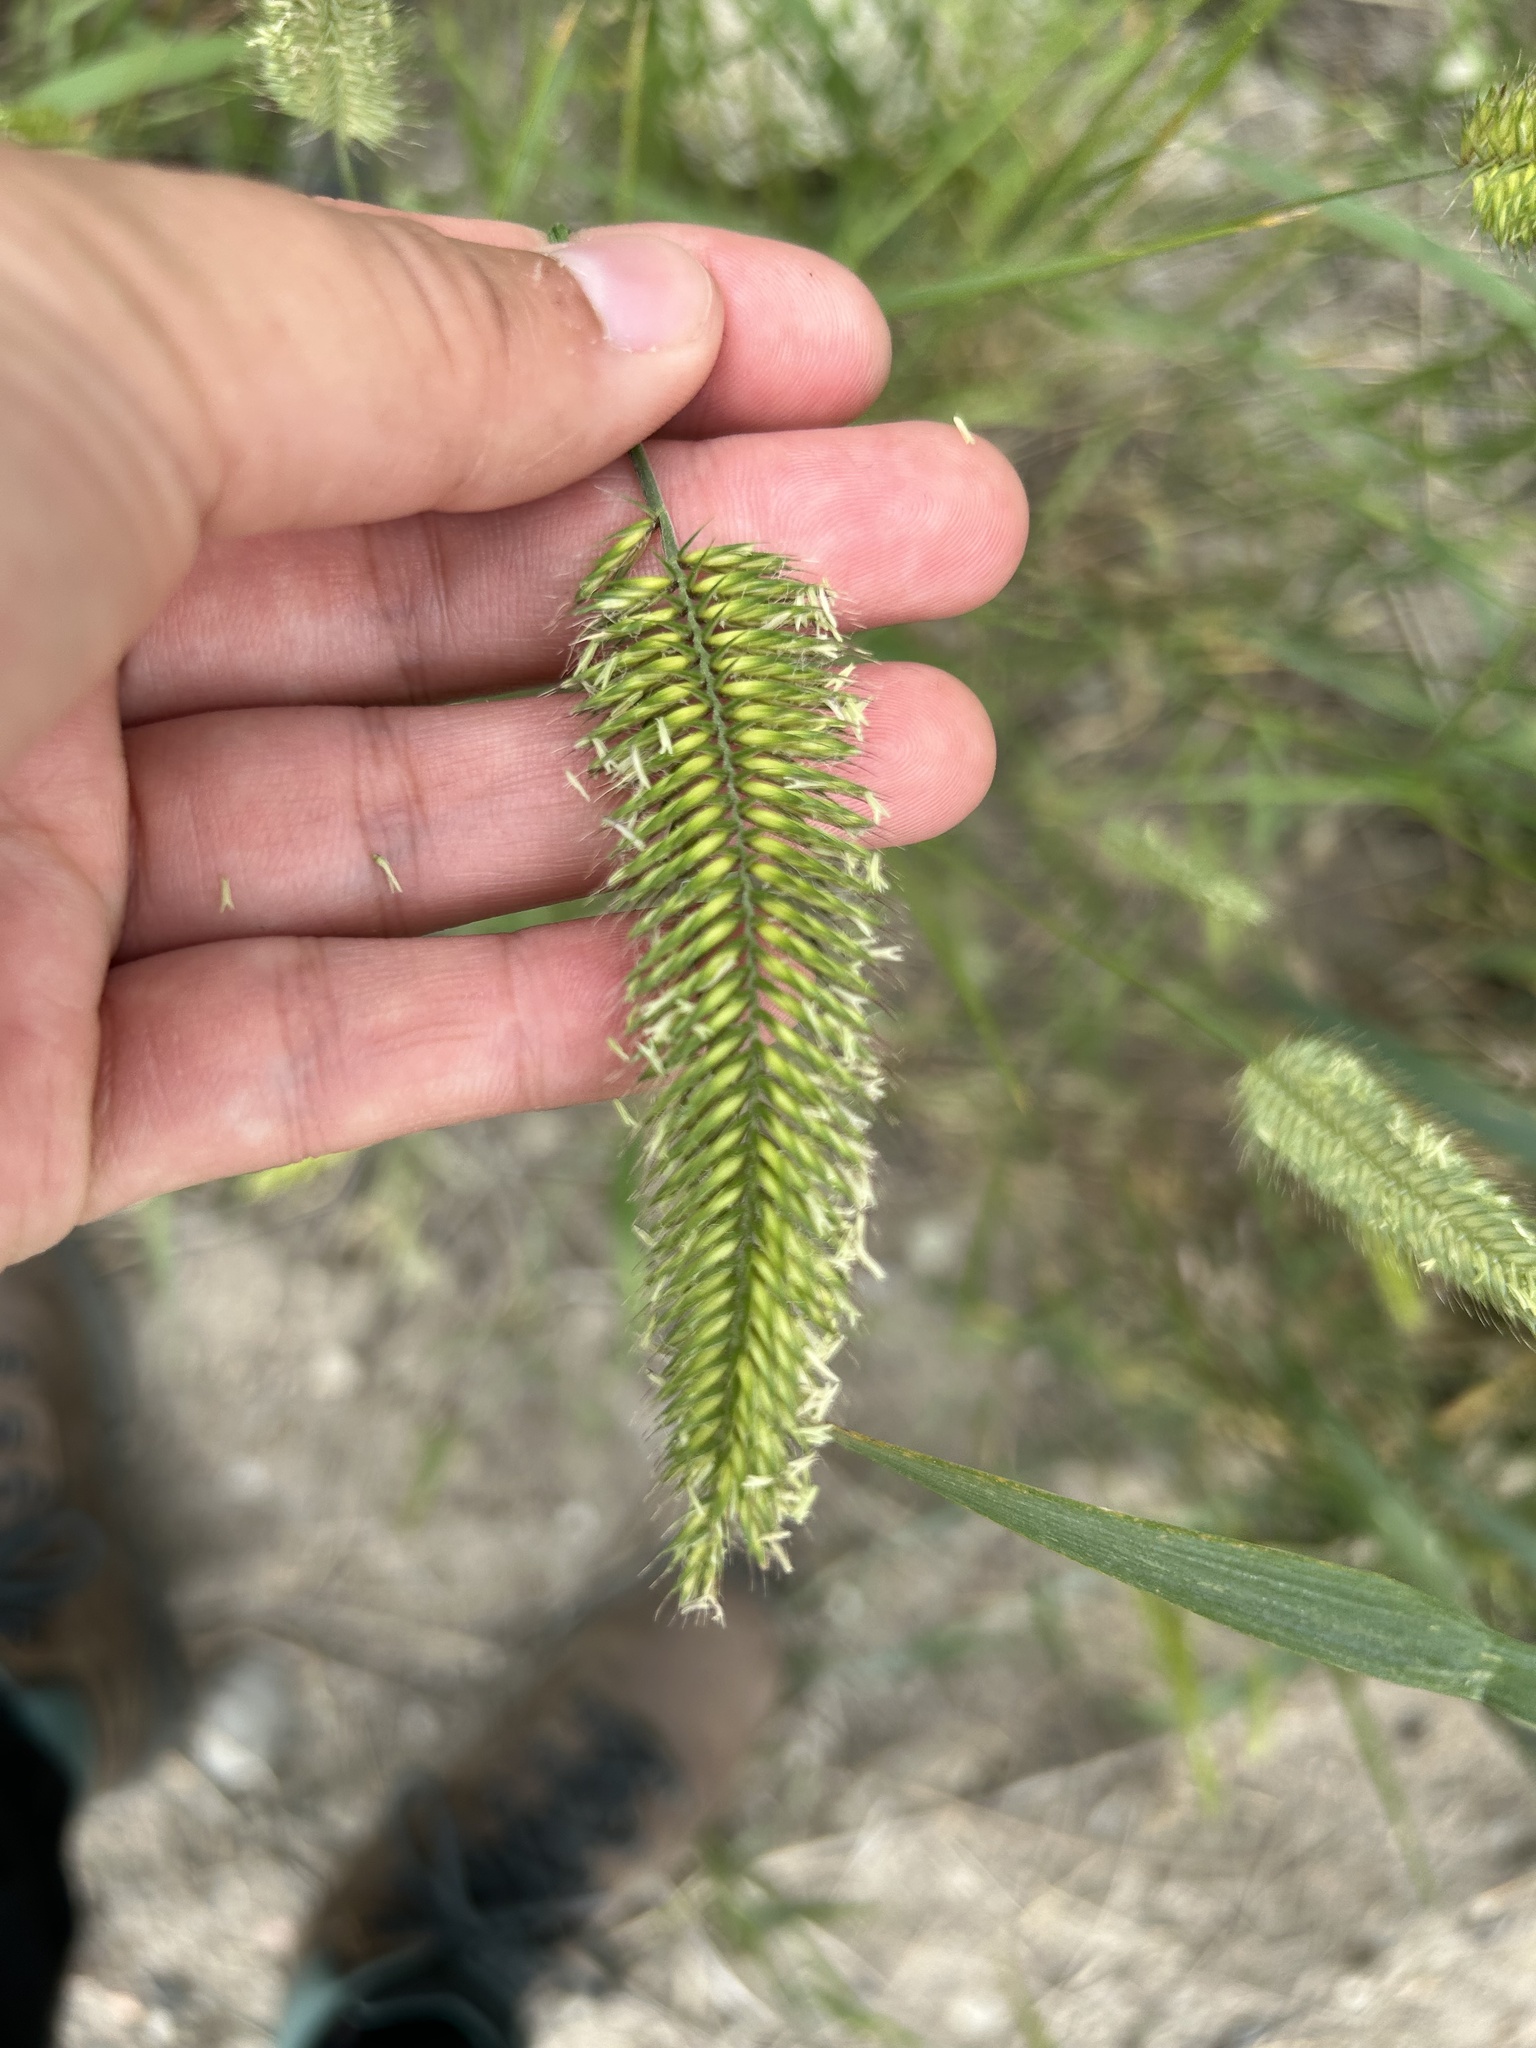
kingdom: Plantae
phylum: Tracheophyta
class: Liliopsida
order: Poales
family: Poaceae
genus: Agropyron
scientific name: Agropyron cristatum
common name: Crested wheatgrass
